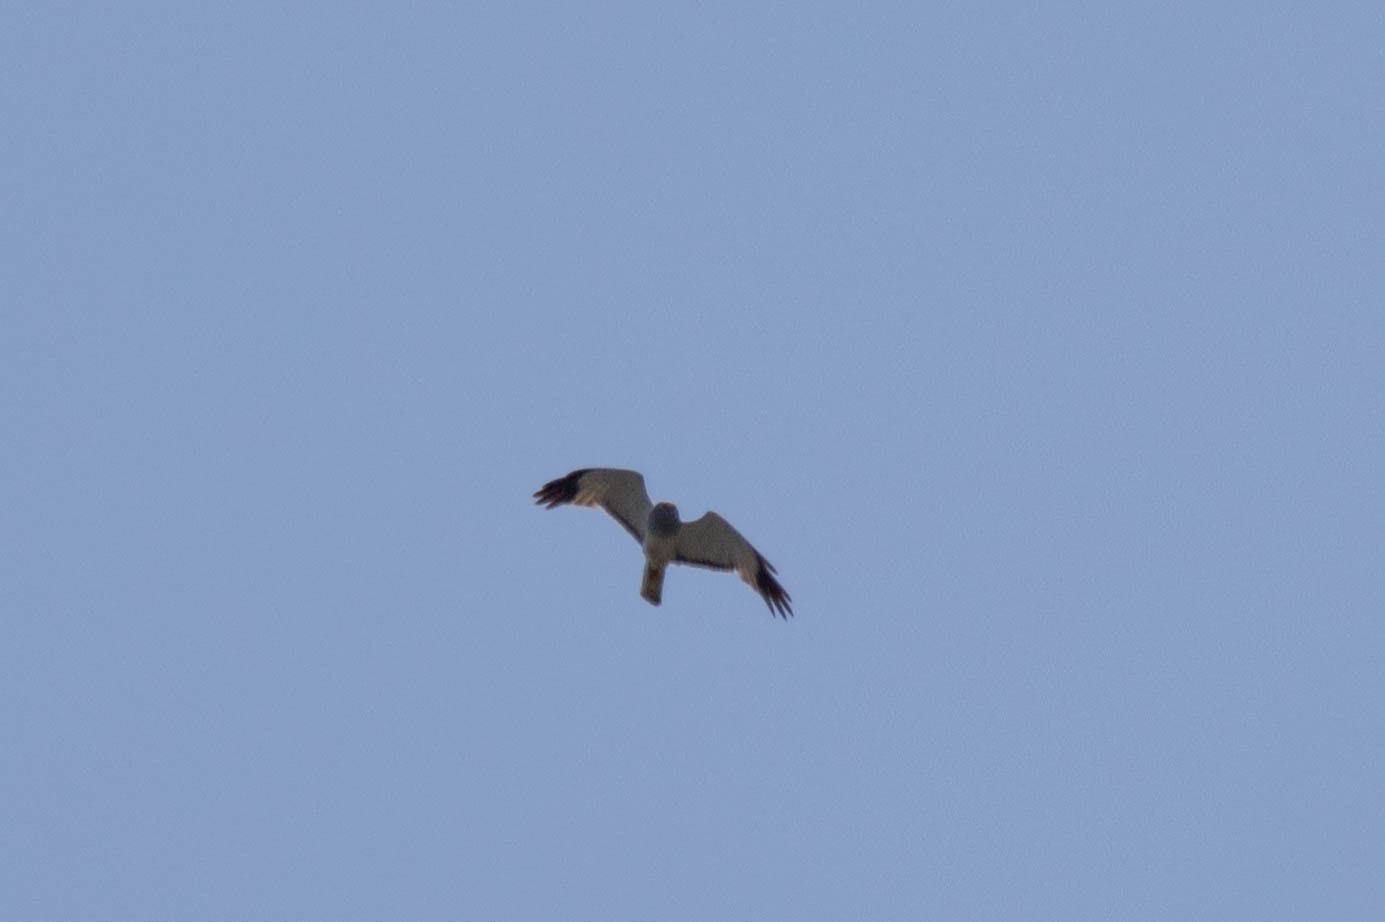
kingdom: Animalia
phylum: Chordata
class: Aves
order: Accipitriformes
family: Accipitridae
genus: Circus
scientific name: Circus cyaneus
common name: Hen harrier
